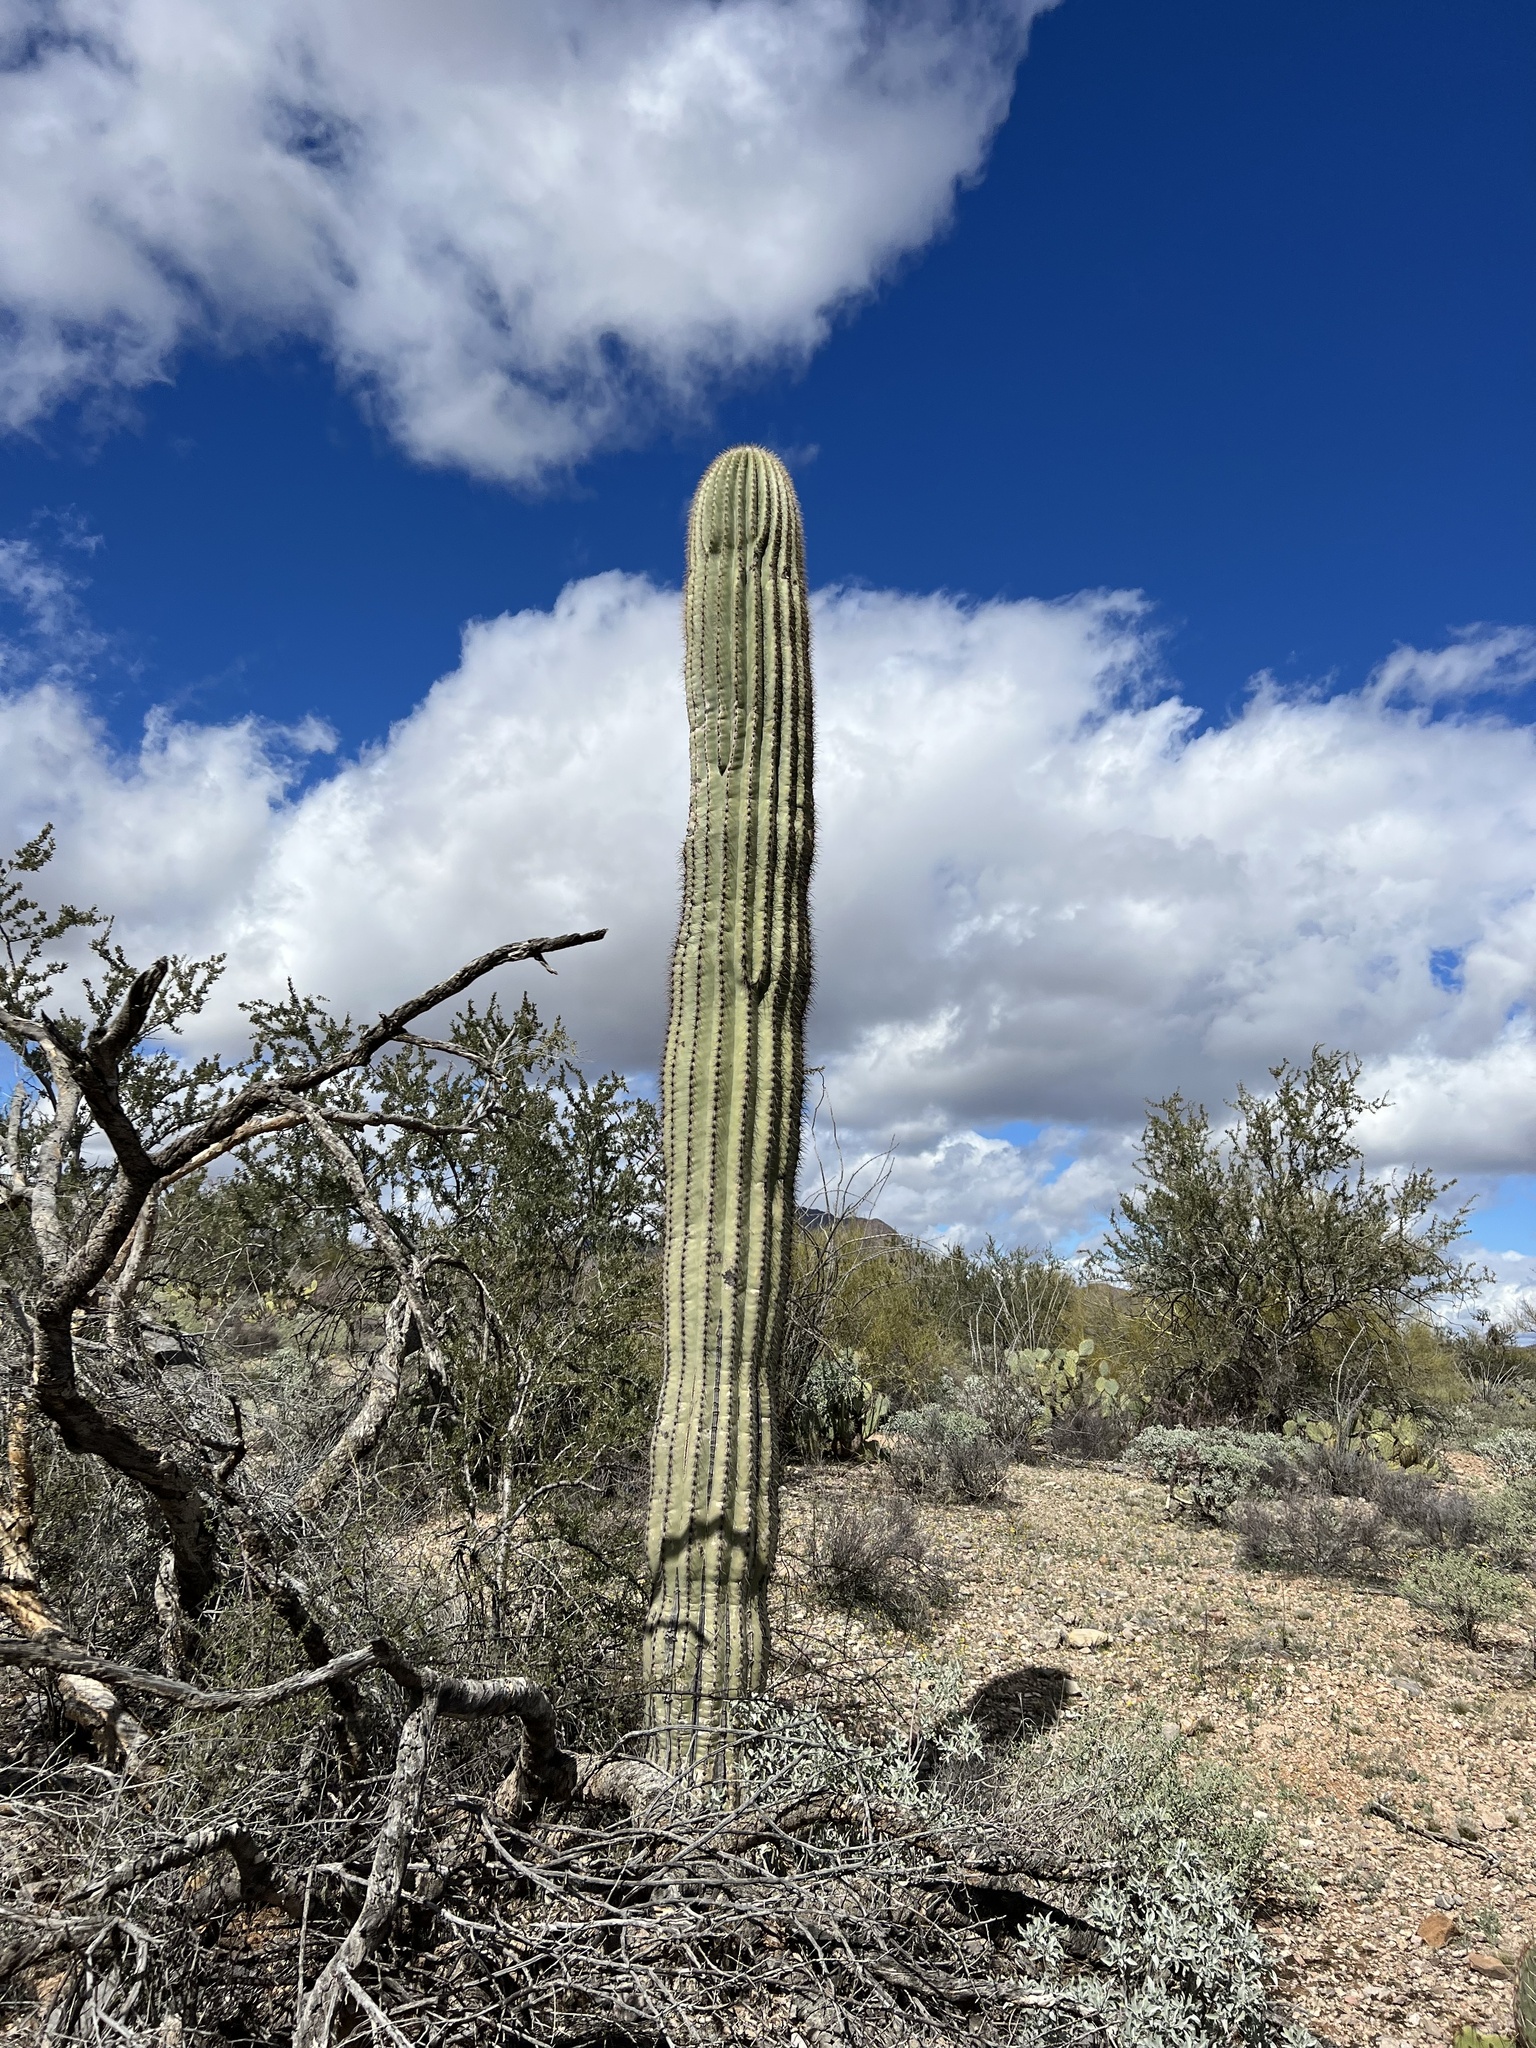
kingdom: Plantae
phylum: Tracheophyta
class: Magnoliopsida
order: Caryophyllales
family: Cactaceae
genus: Carnegiea
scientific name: Carnegiea gigantea
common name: Saguaro
